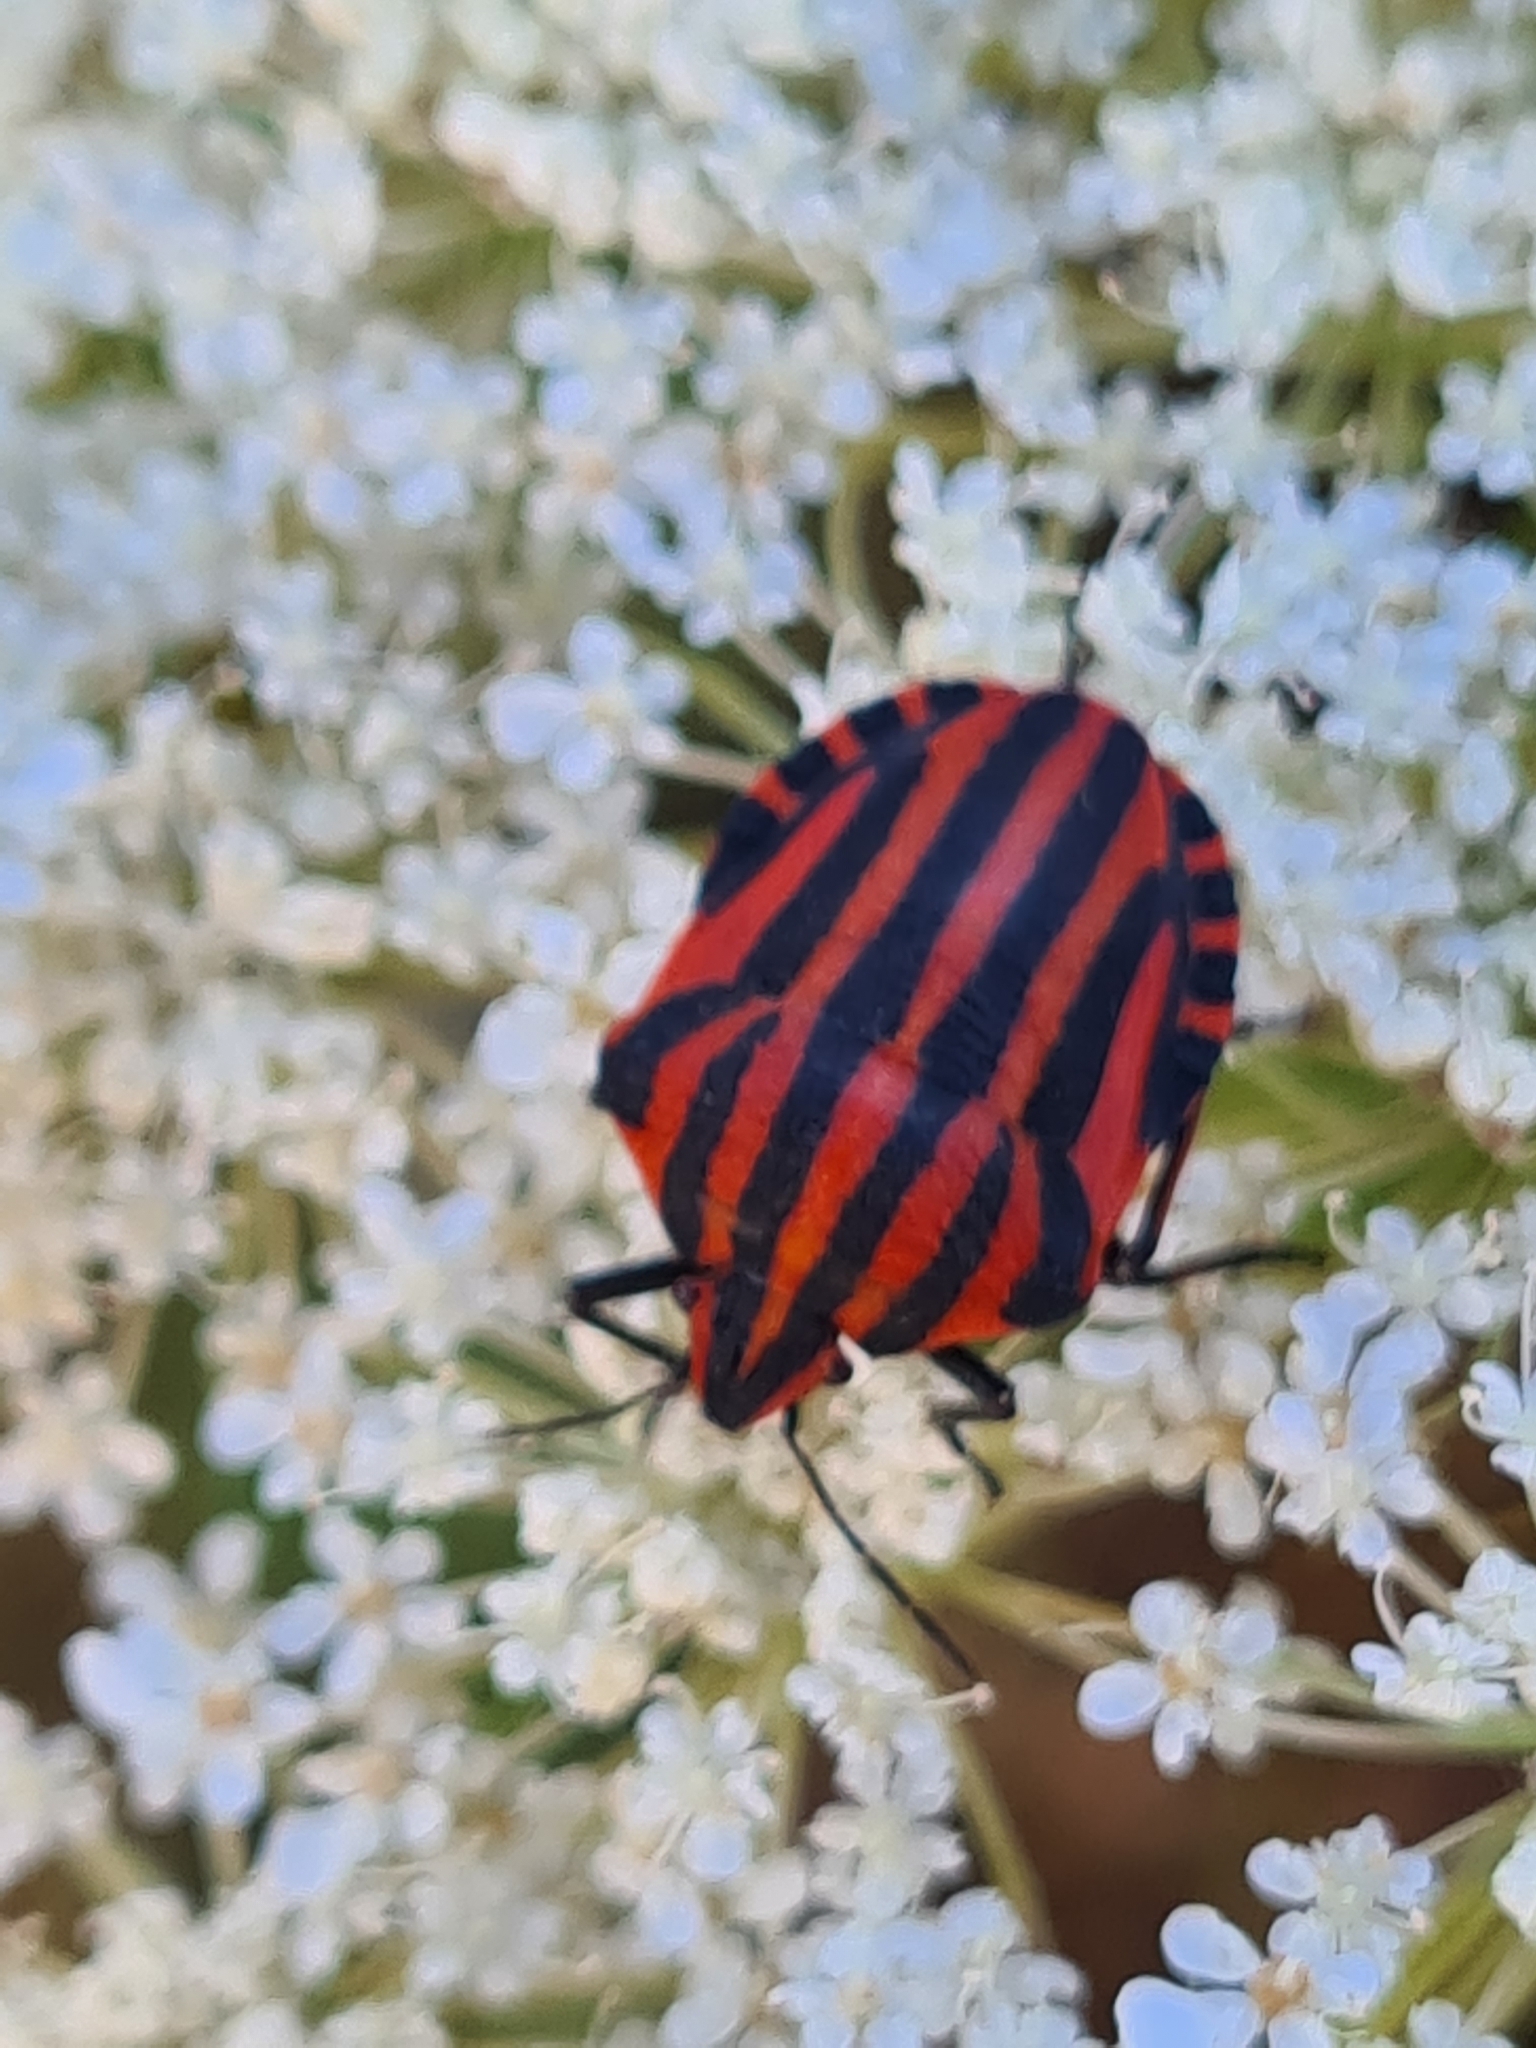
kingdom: Animalia
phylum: Arthropoda
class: Insecta
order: Hemiptera
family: Pentatomidae
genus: Graphosoma
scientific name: Graphosoma italicum
